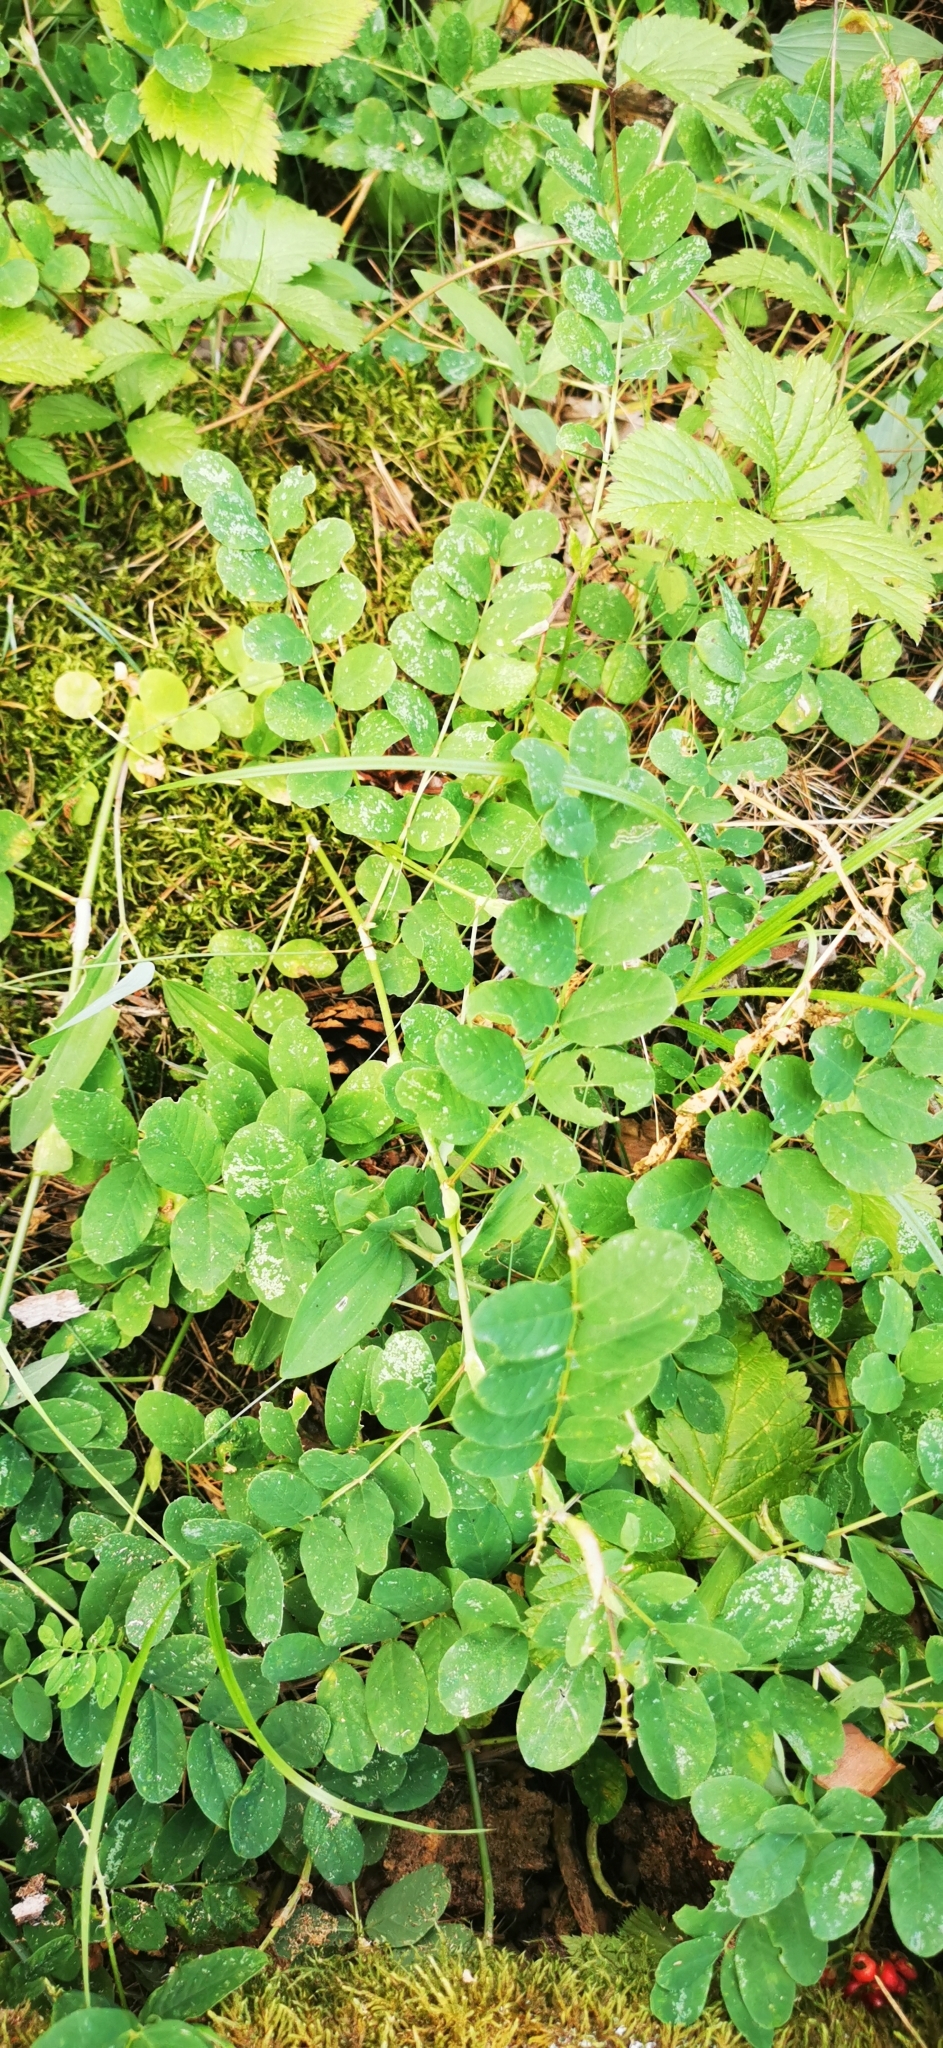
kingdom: Plantae
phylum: Tracheophyta
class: Magnoliopsida
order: Fabales
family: Fabaceae
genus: Astragalus
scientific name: Astragalus glycyphyllos
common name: Wild liquorice
